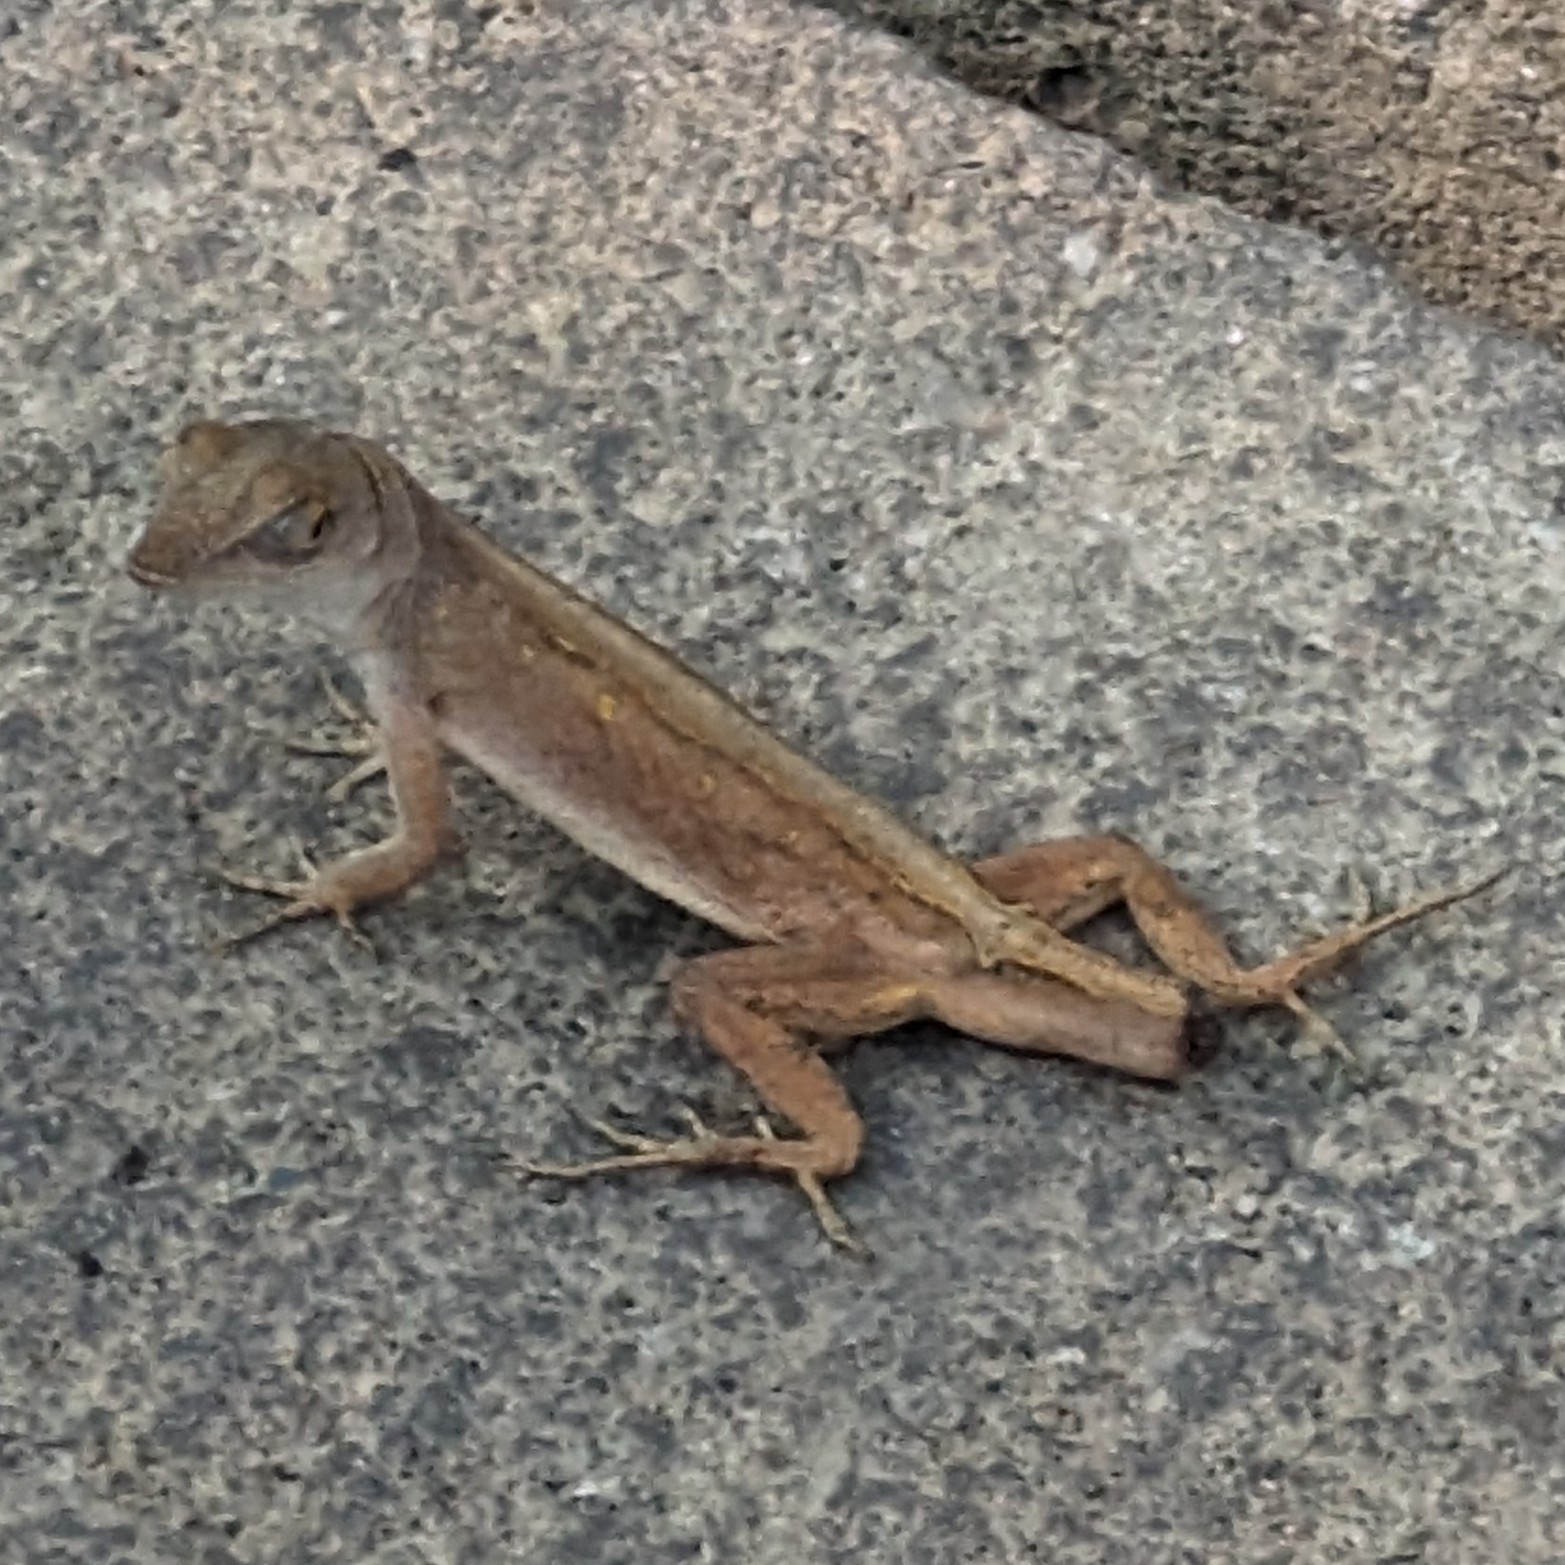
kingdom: Animalia
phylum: Chordata
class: Squamata
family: Dactyloidae
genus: Anolis
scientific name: Anolis sagrei
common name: Brown anole
